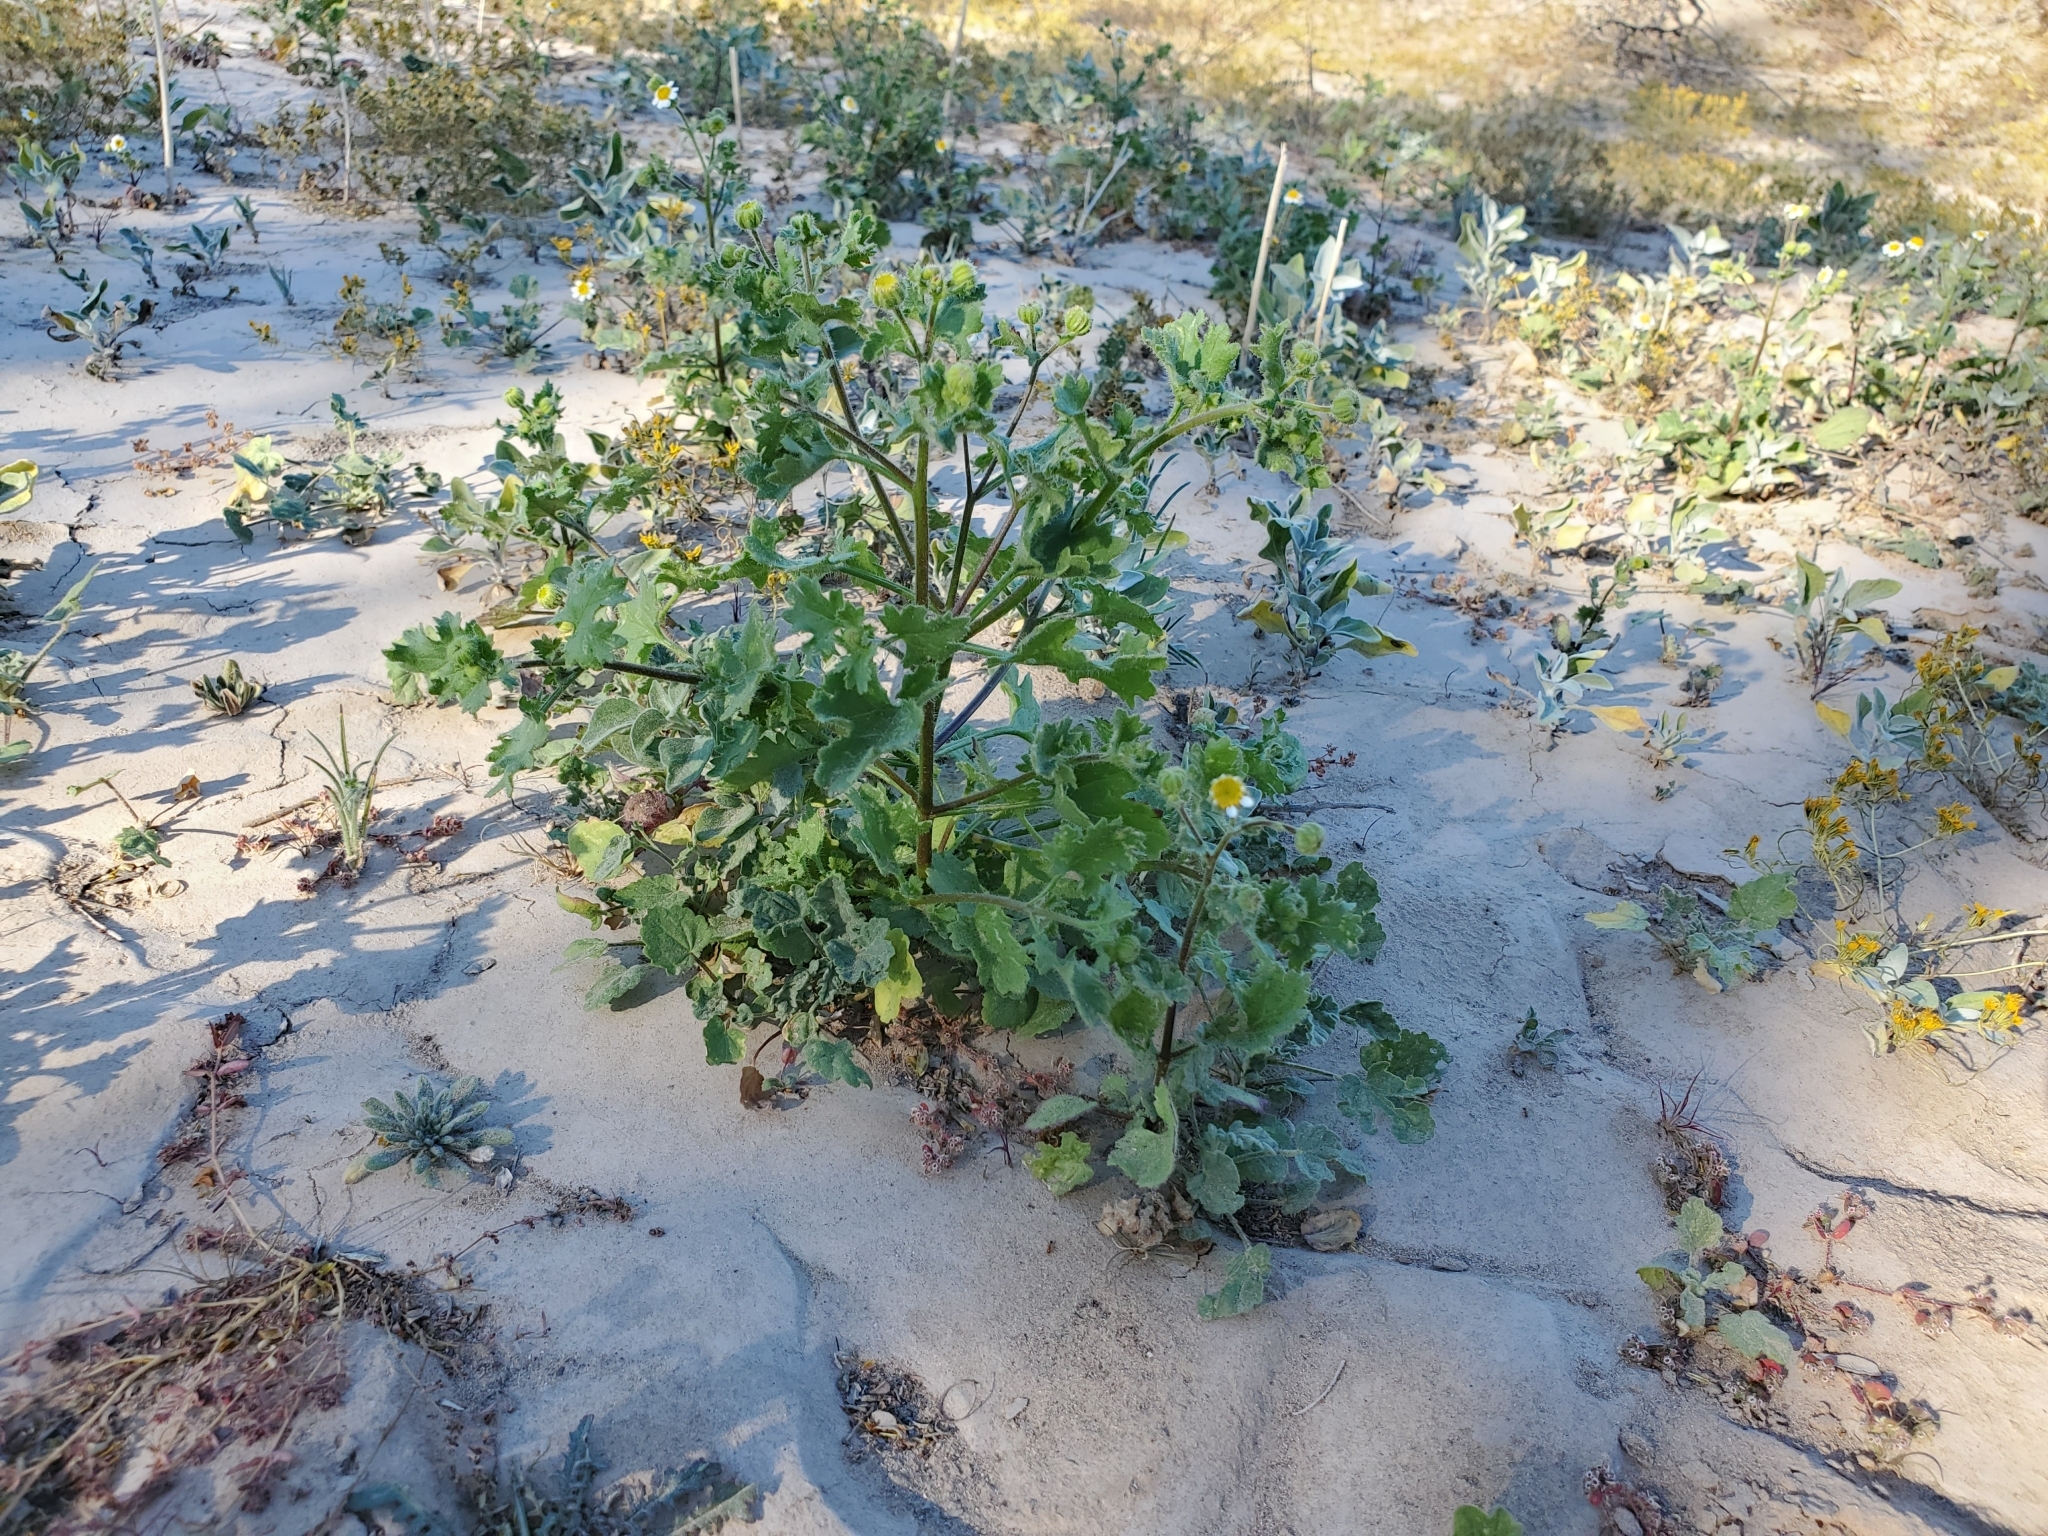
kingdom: Plantae
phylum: Tracheophyta
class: Magnoliopsida
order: Asterales
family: Asteraceae
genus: Laphamia
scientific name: Laphamia emoryi
